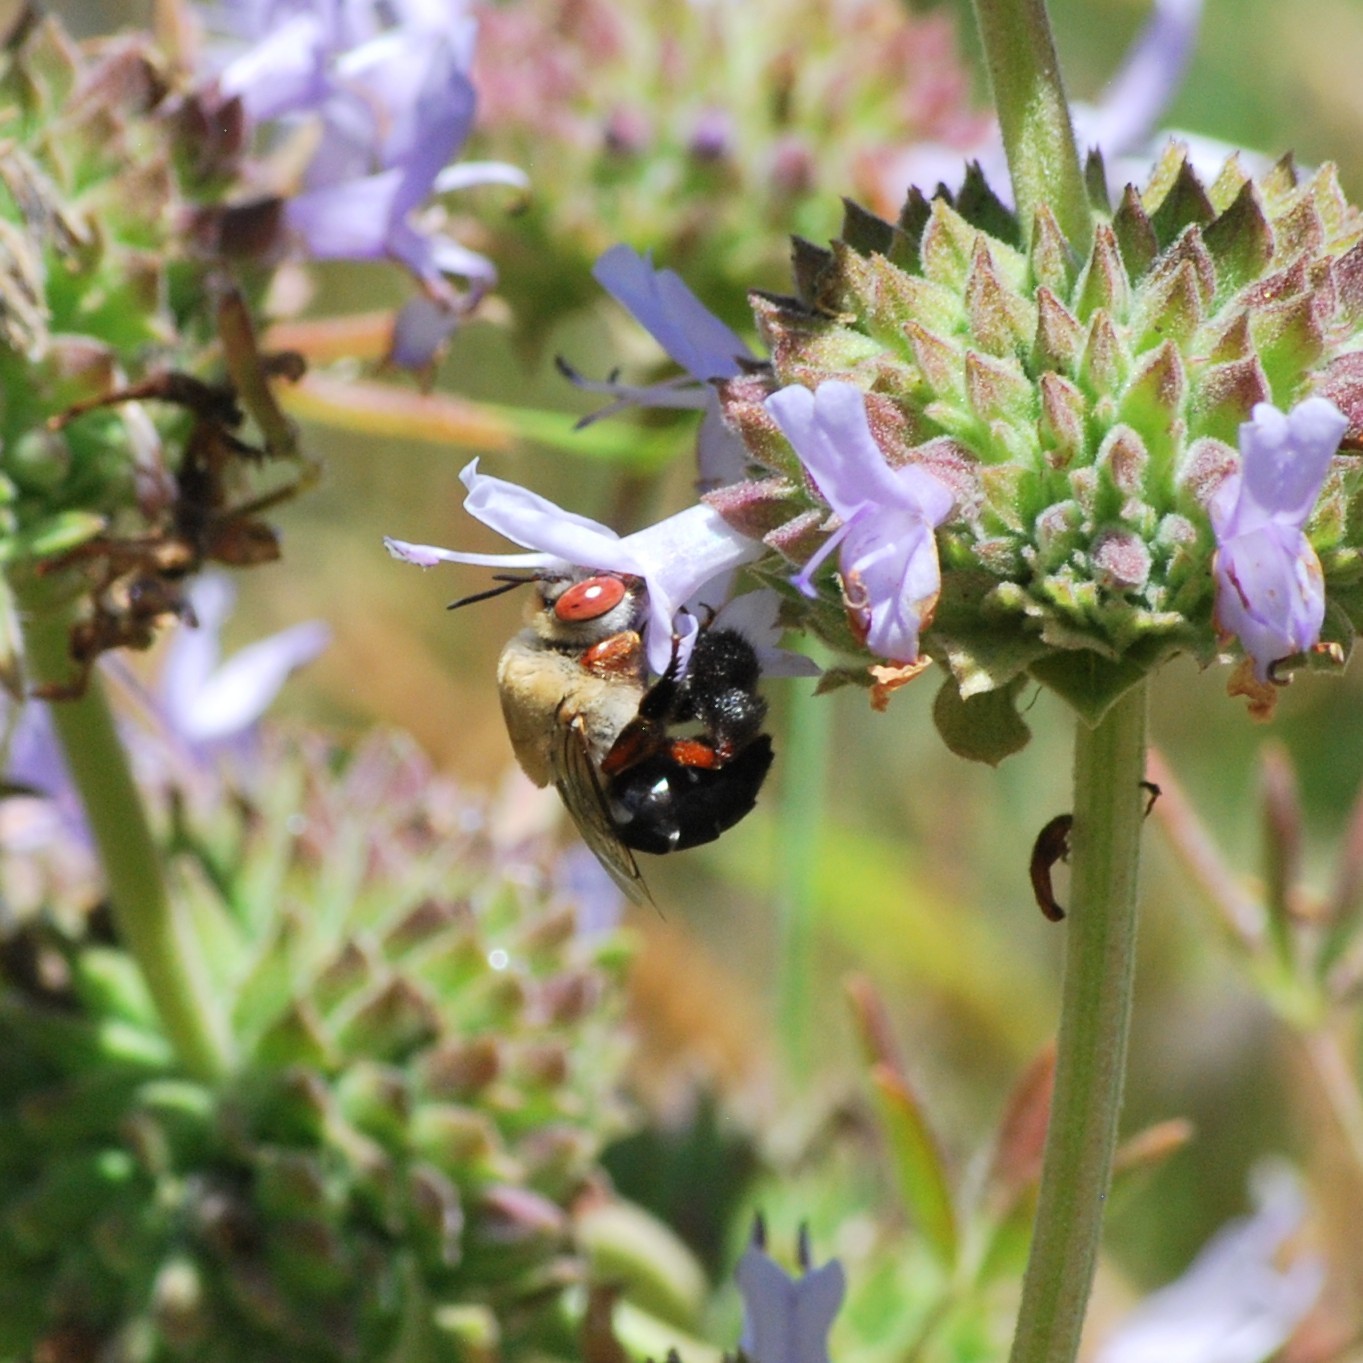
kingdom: Animalia
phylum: Arthropoda
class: Insecta
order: Hymenoptera
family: Apidae
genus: Centris
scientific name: Centris rhodopus
